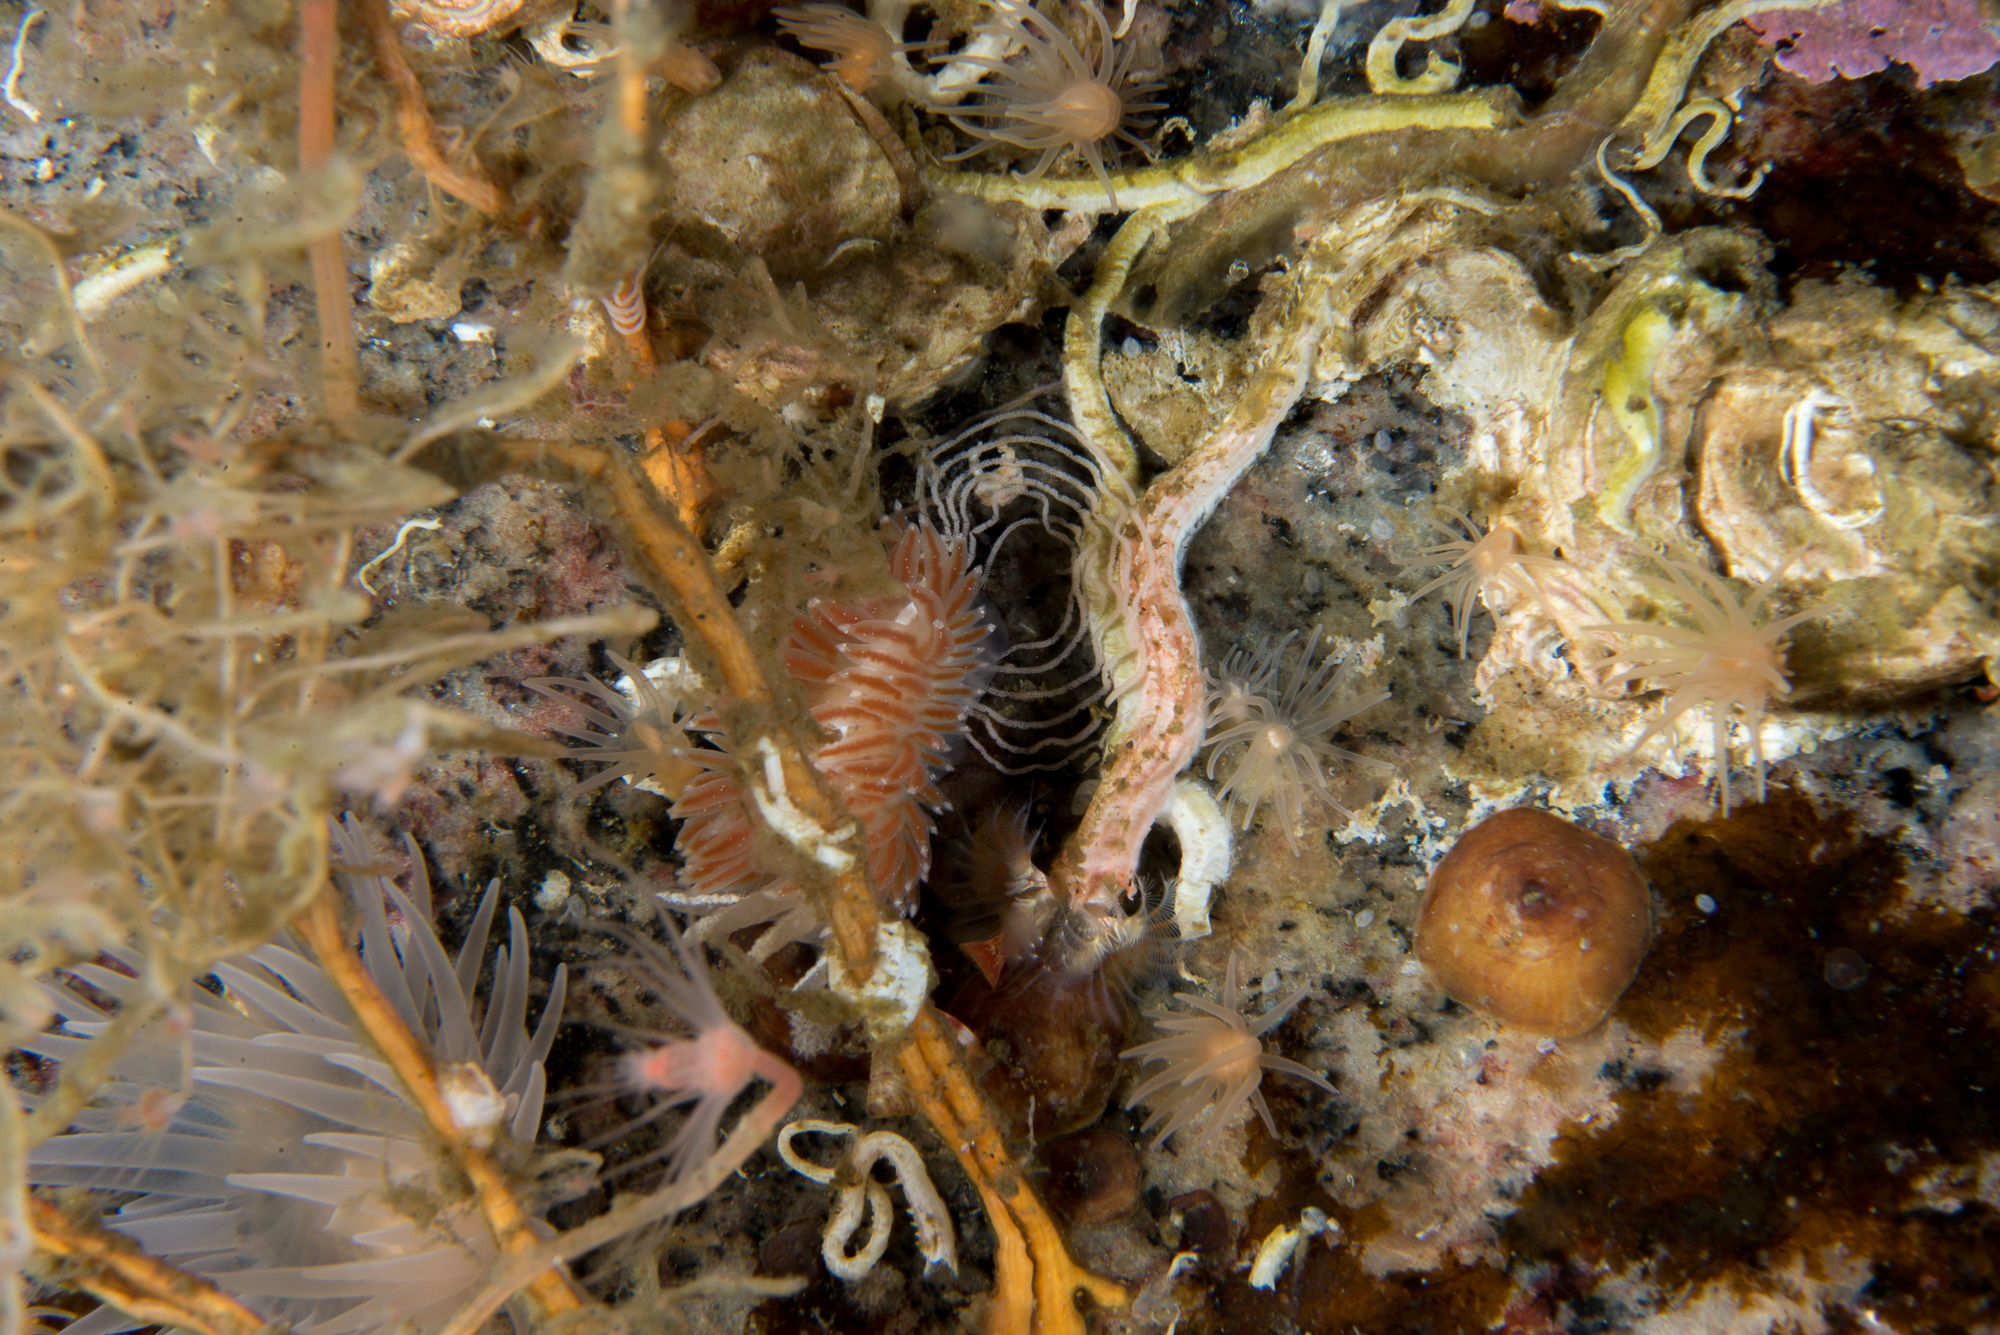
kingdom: Animalia
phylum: Mollusca
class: Gastropoda
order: Nudibranchia
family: Coryphellidae
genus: Coryphella
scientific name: Coryphella monicae
